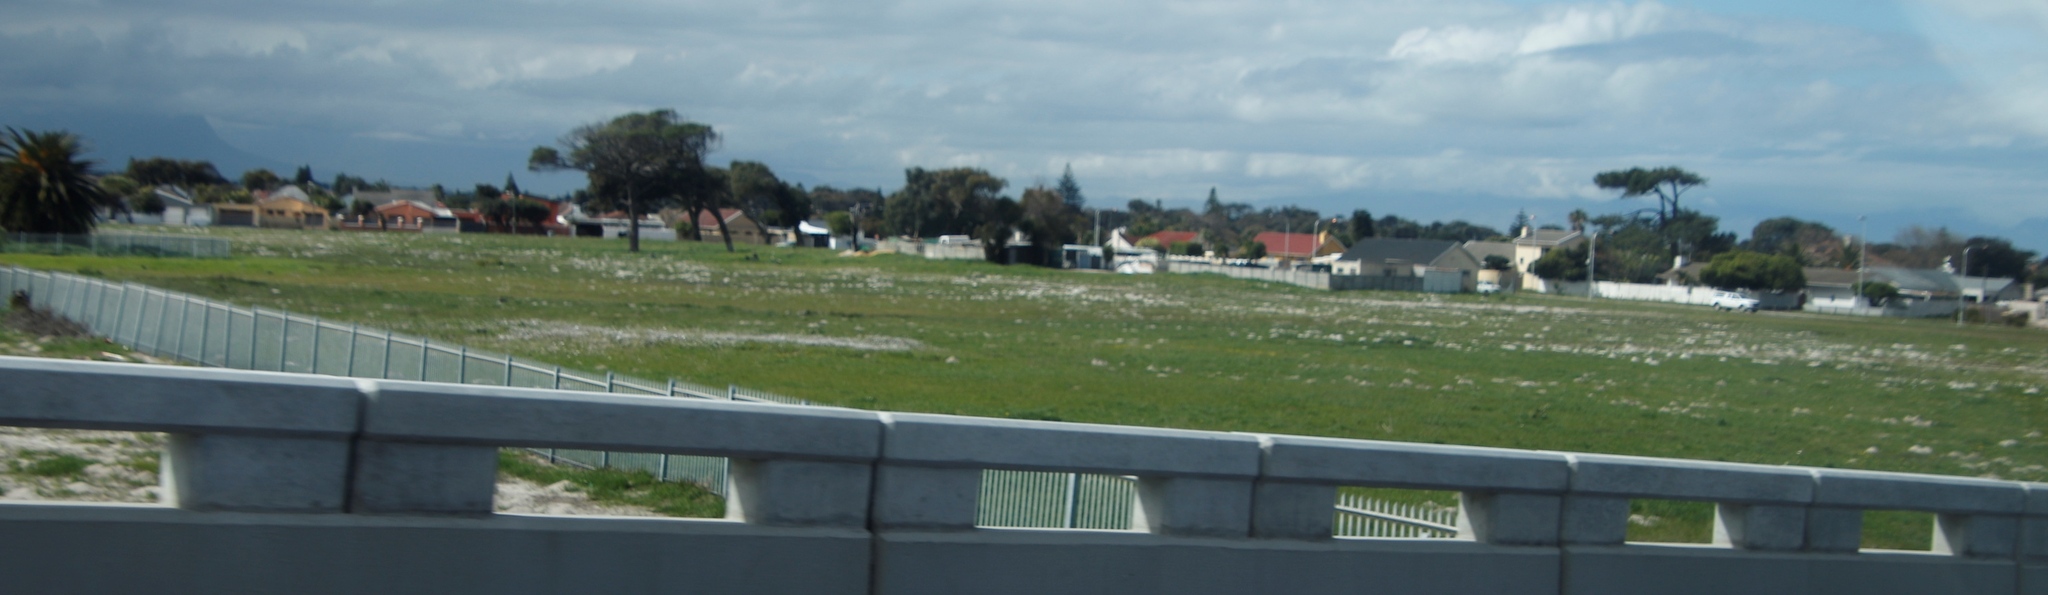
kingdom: Plantae
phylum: Tracheophyta
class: Magnoliopsida
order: Asterales
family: Asteraceae
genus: Dimorphotheca
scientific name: Dimorphotheca
